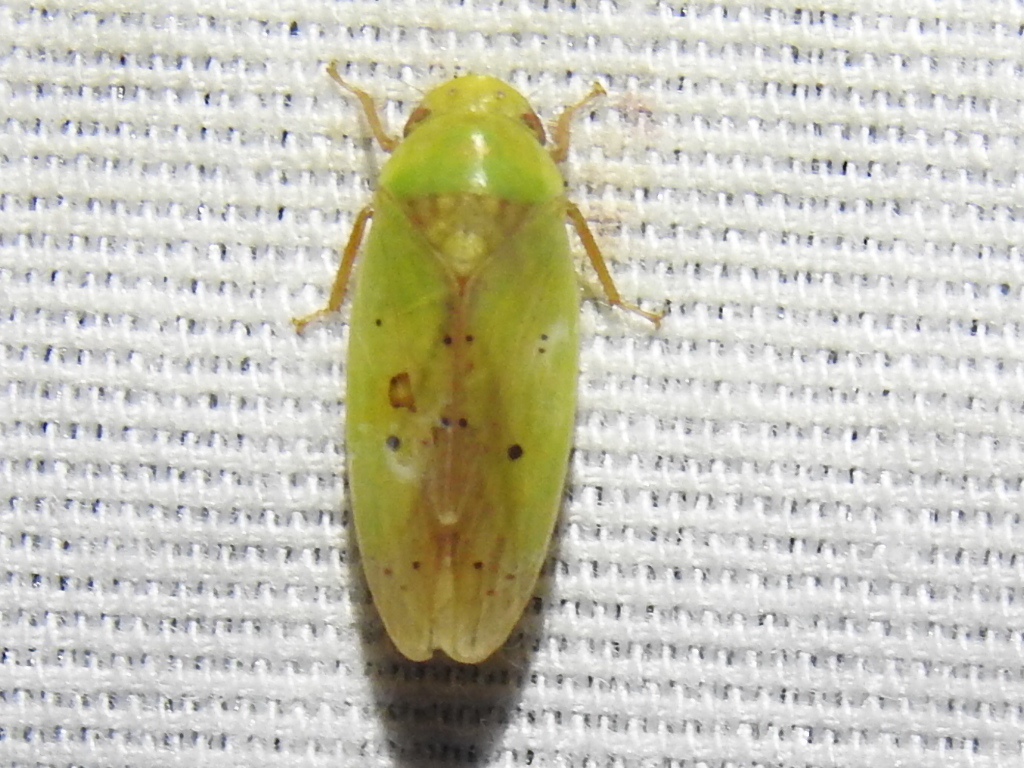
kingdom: Animalia
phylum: Arthropoda
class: Insecta
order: Hemiptera
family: Cicadellidae
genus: Ponana
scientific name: Ponana
